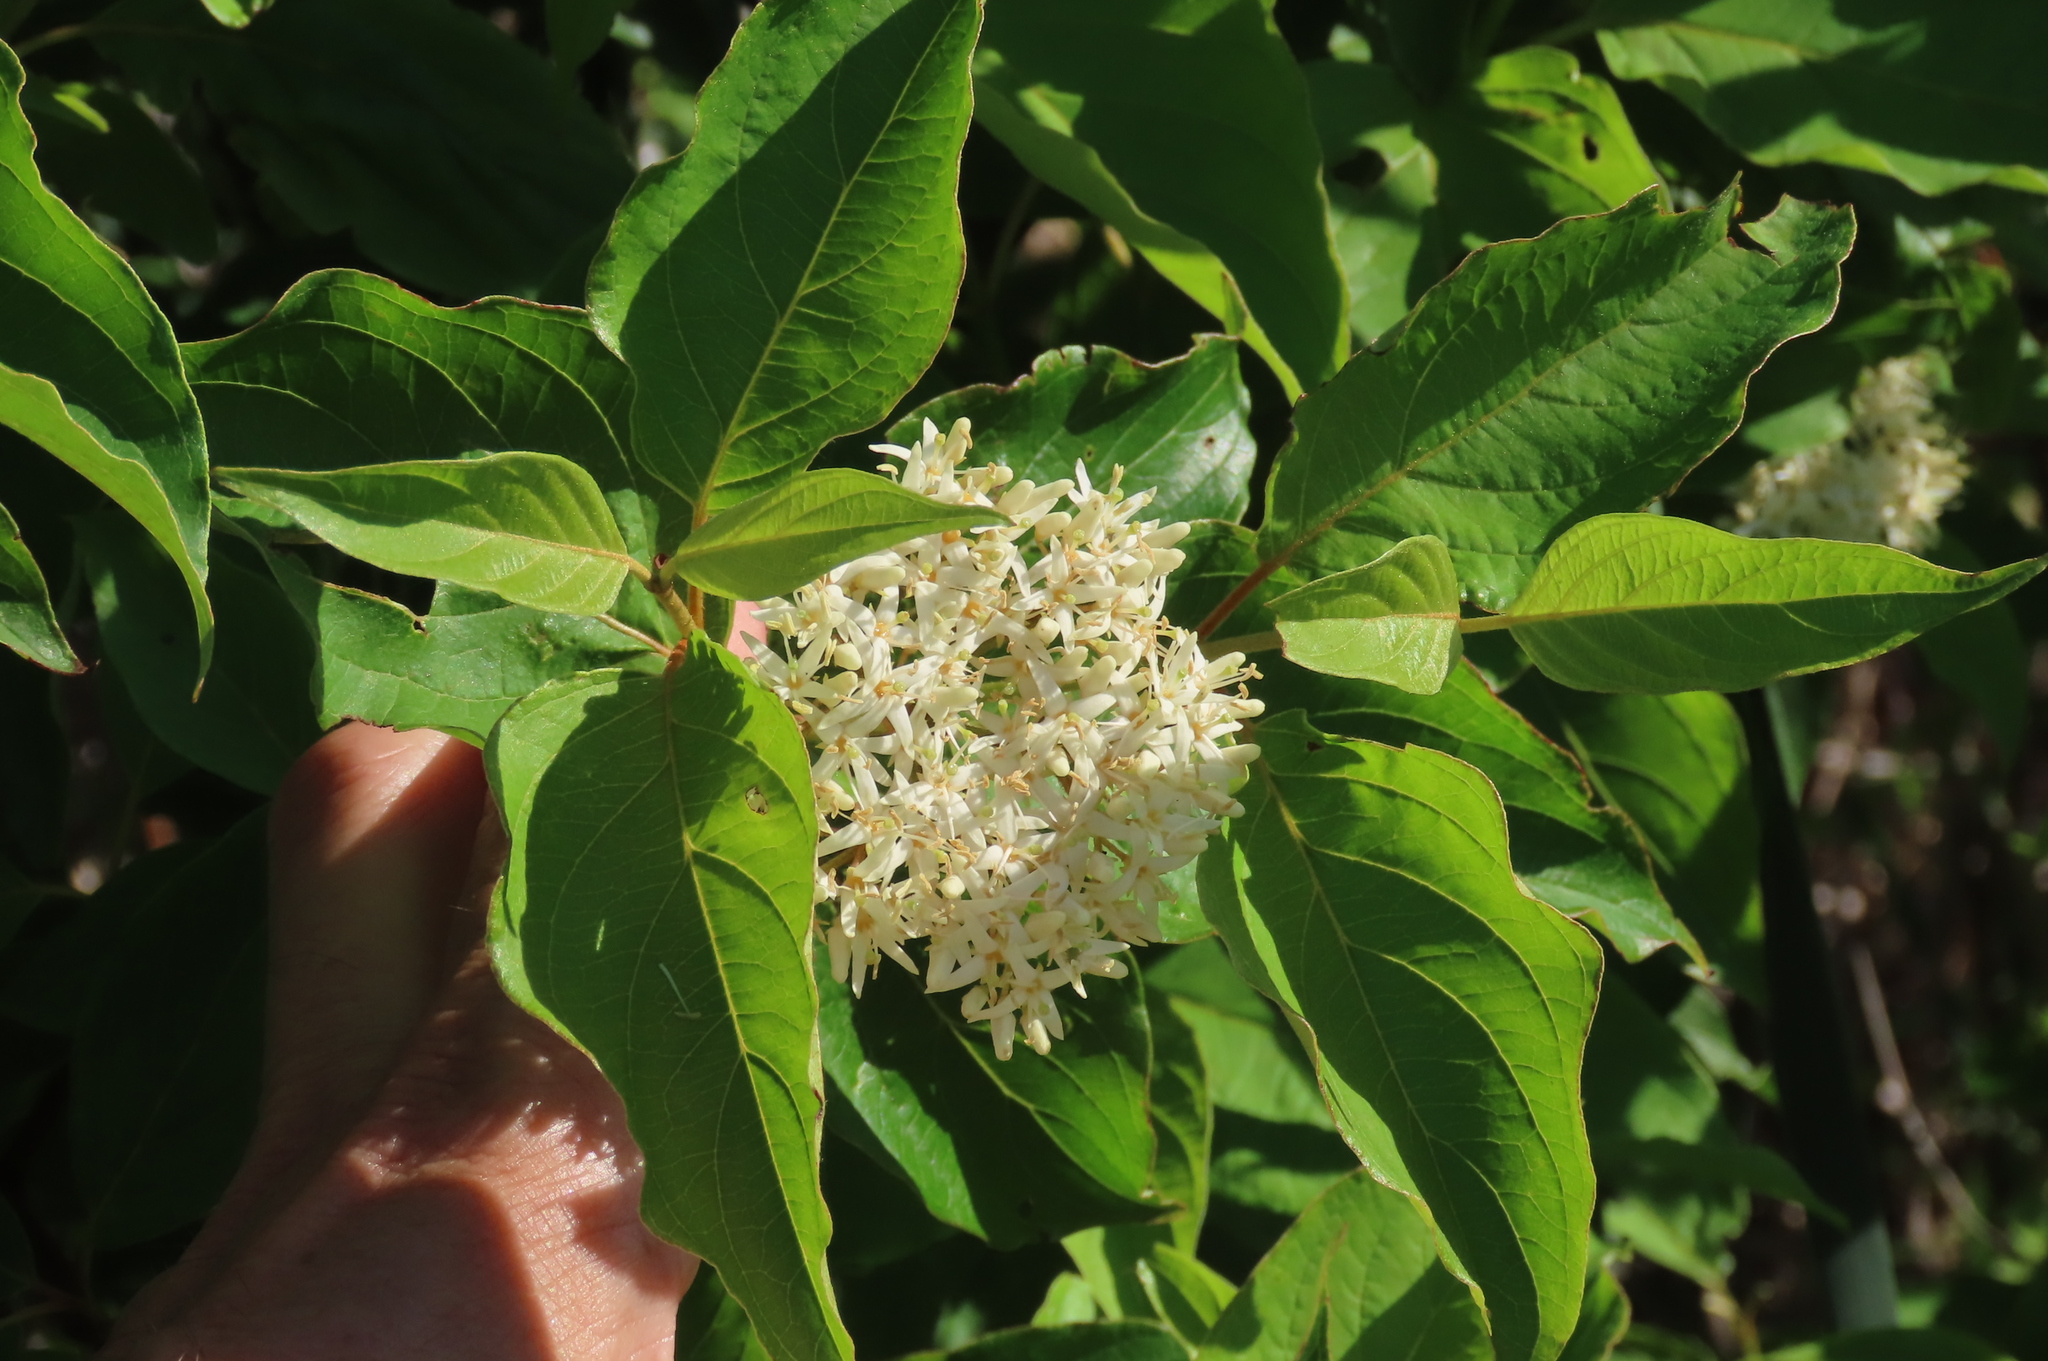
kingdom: Plantae
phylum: Tracheophyta
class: Magnoliopsida
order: Cornales
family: Cornaceae
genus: Cornus
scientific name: Cornus amomum
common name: Silky dogwood
